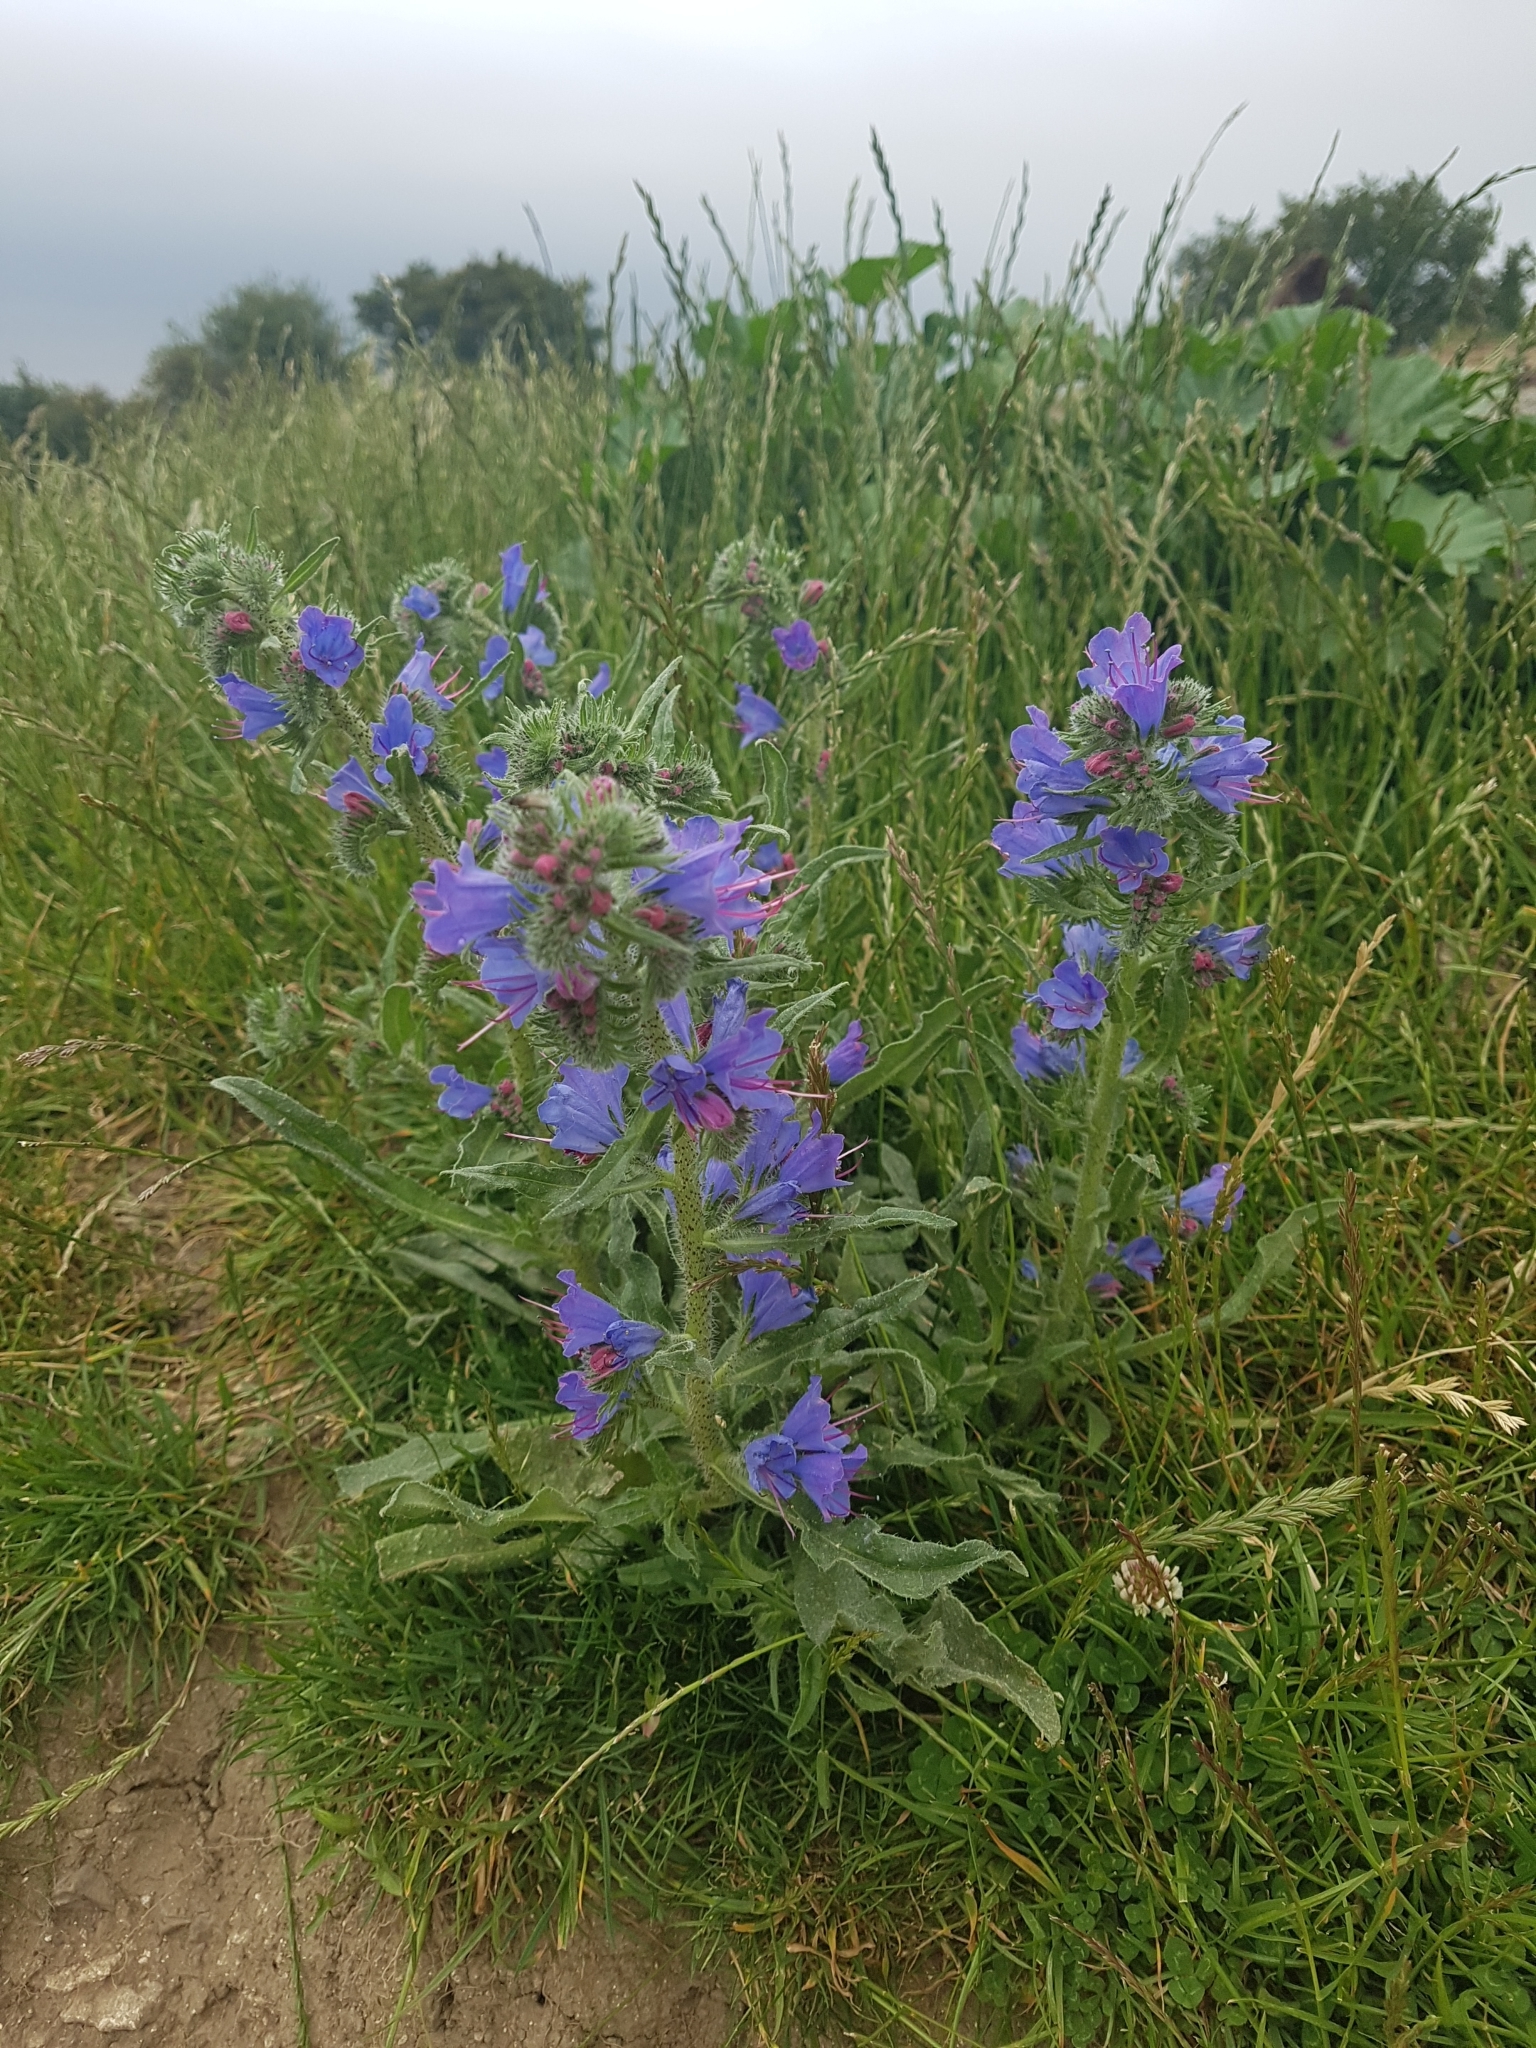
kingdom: Plantae
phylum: Tracheophyta
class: Magnoliopsida
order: Boraginales
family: Boraginaceae
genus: Echium
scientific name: Echium vulgare
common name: Common viper's bugloss
